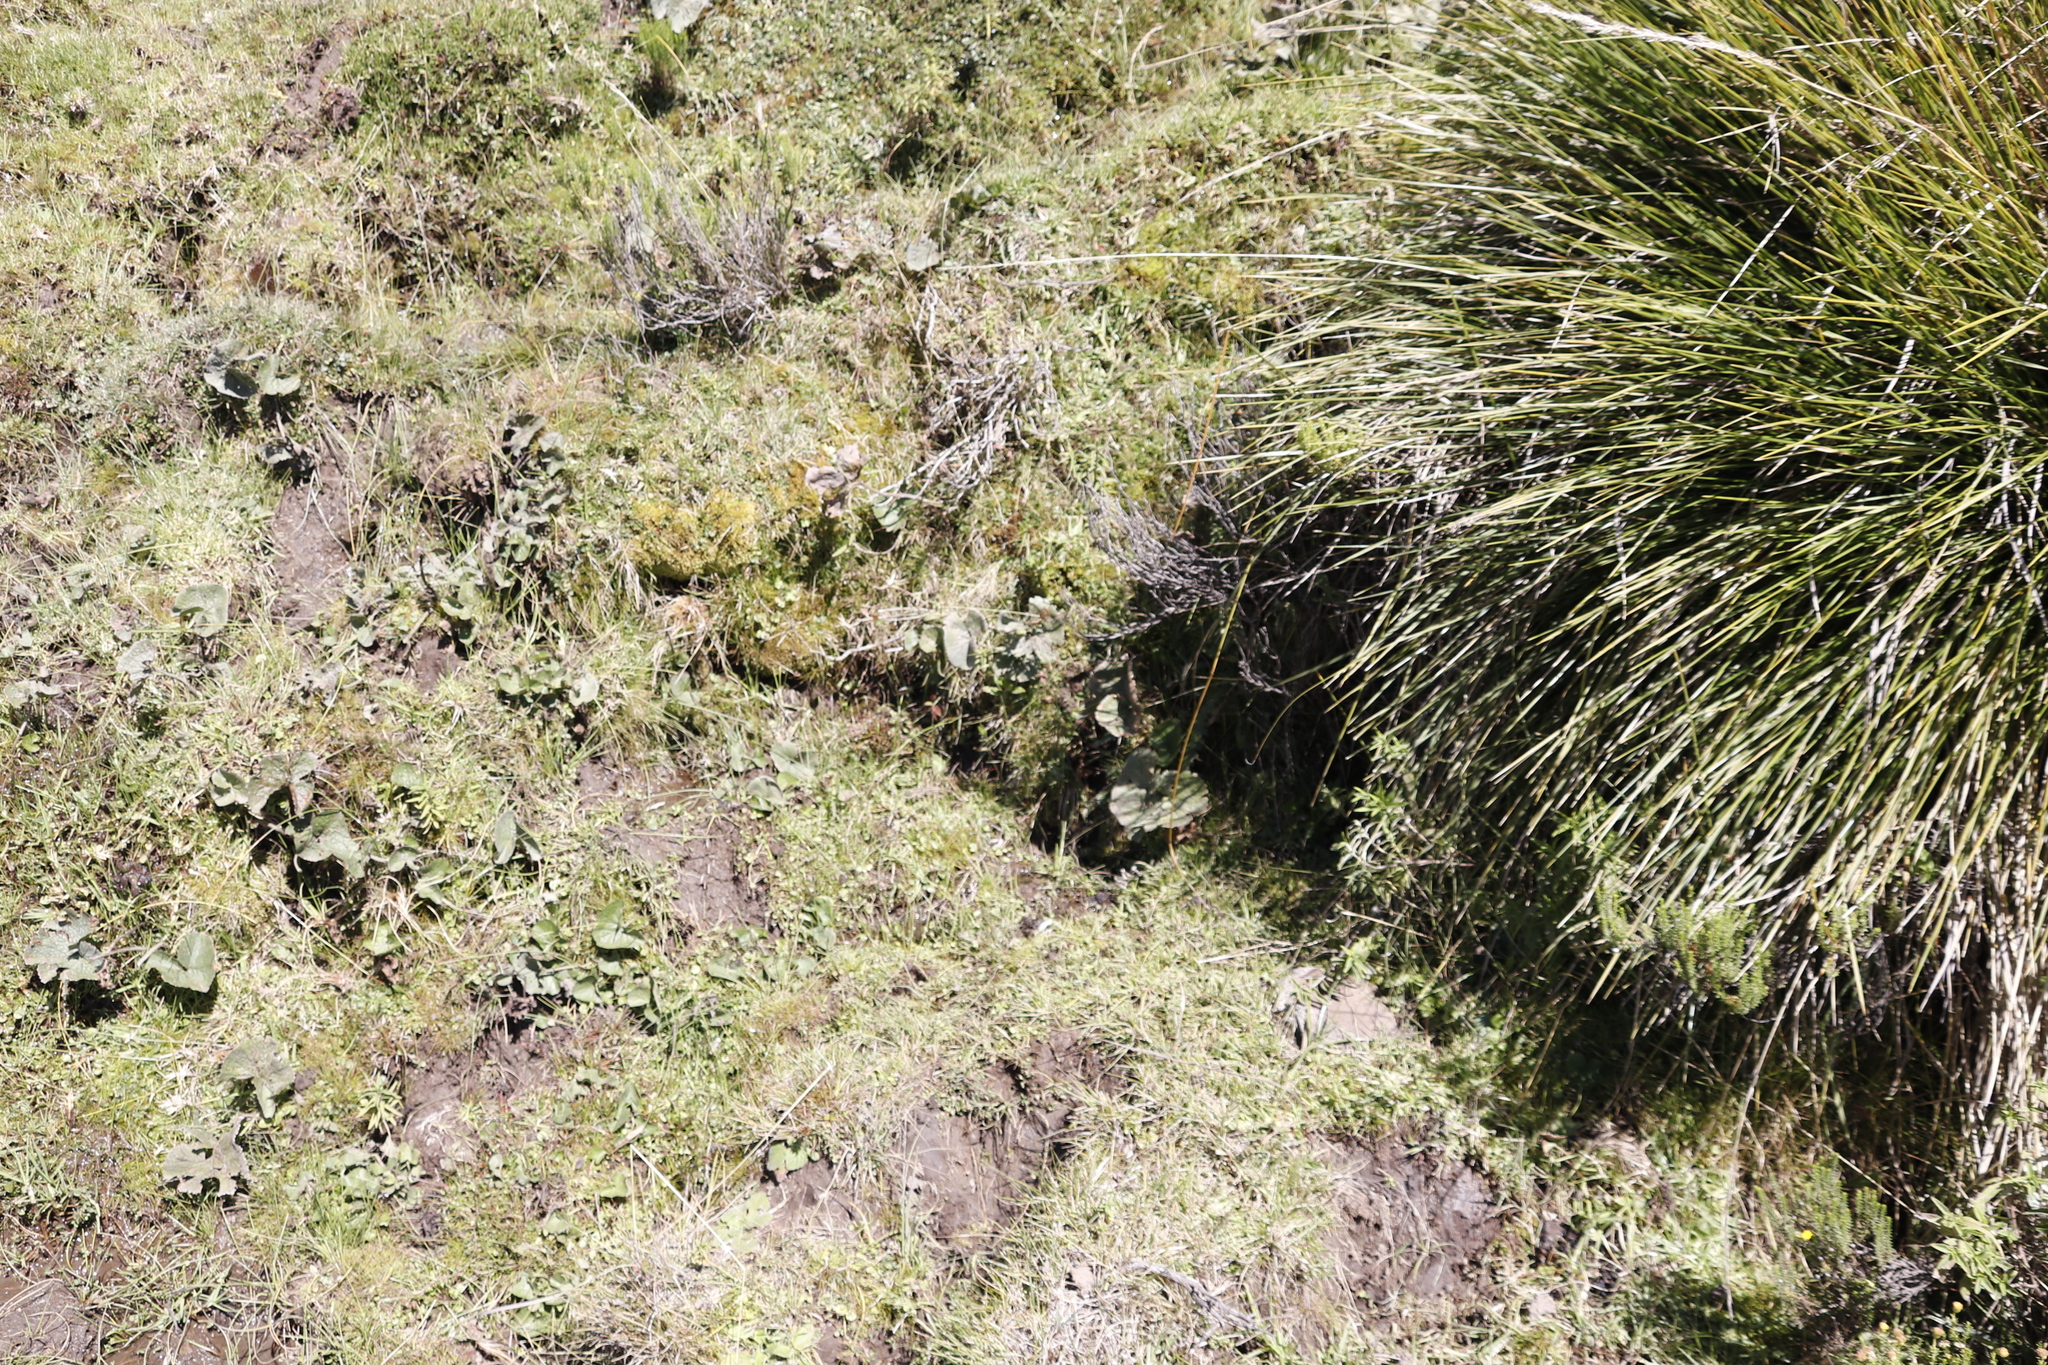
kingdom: Plantae
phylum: Tracheophyta
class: Magnoliopsida
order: Gunnerales
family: Gunneraceae
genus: Gunnera
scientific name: Gunnera perpensa
